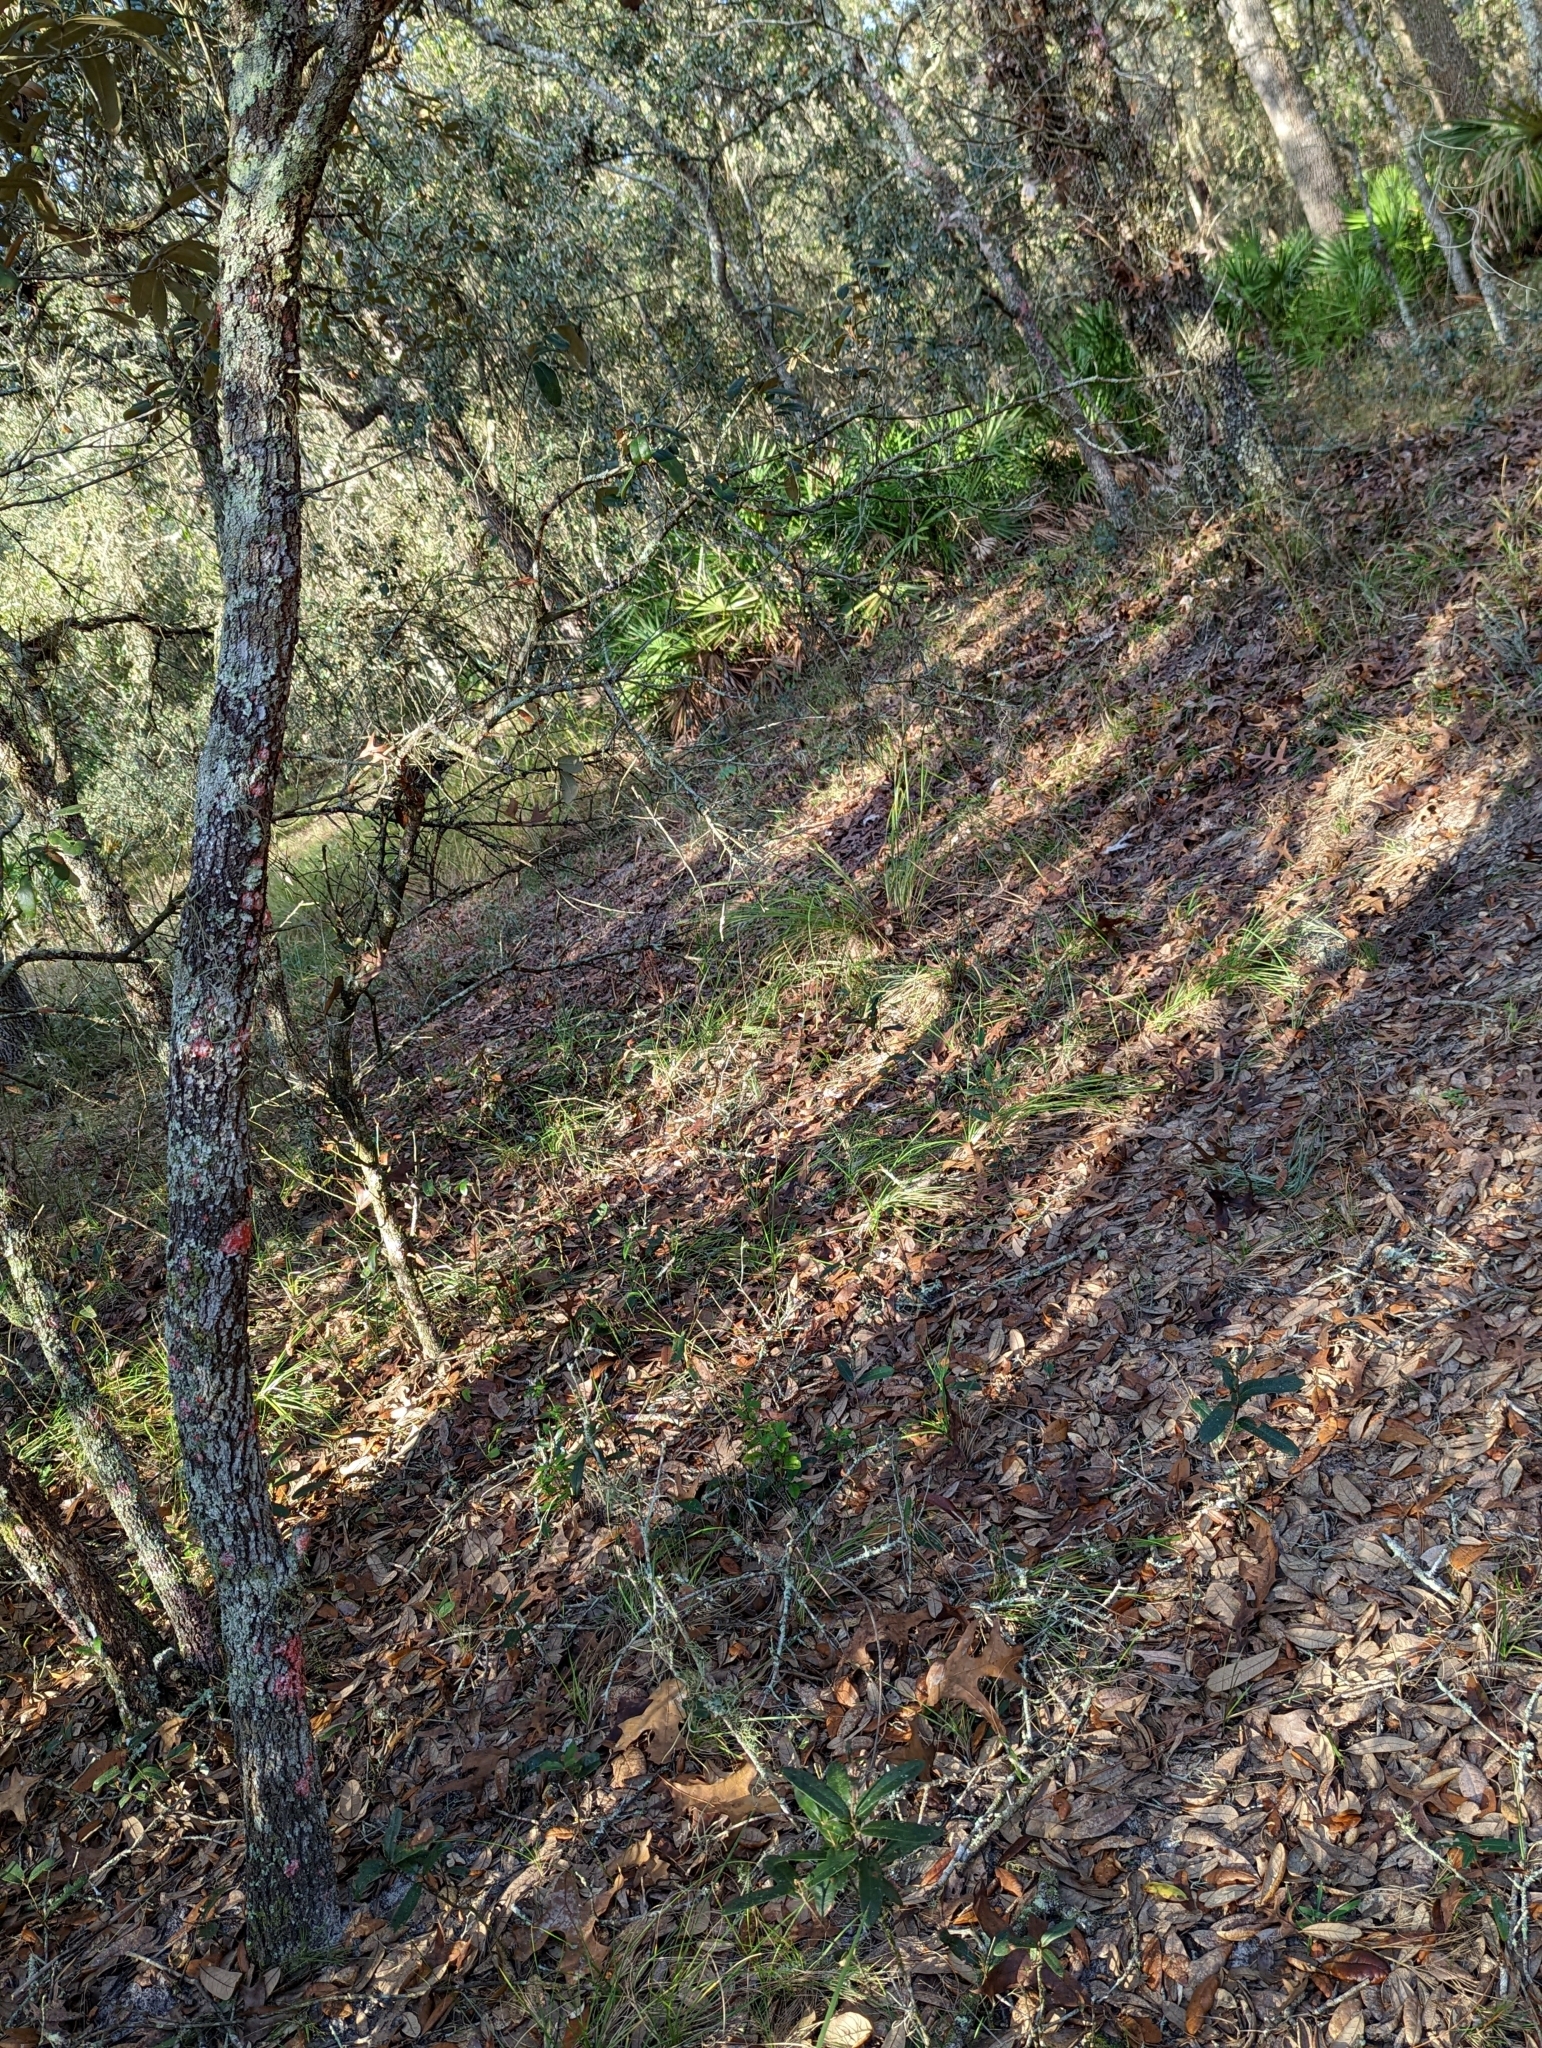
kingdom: Plantae
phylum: Tracheophyta
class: Magnoliopsida
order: Fagales
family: Fagaceae
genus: Quercus
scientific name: Quercus geminata
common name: Sand live oak
